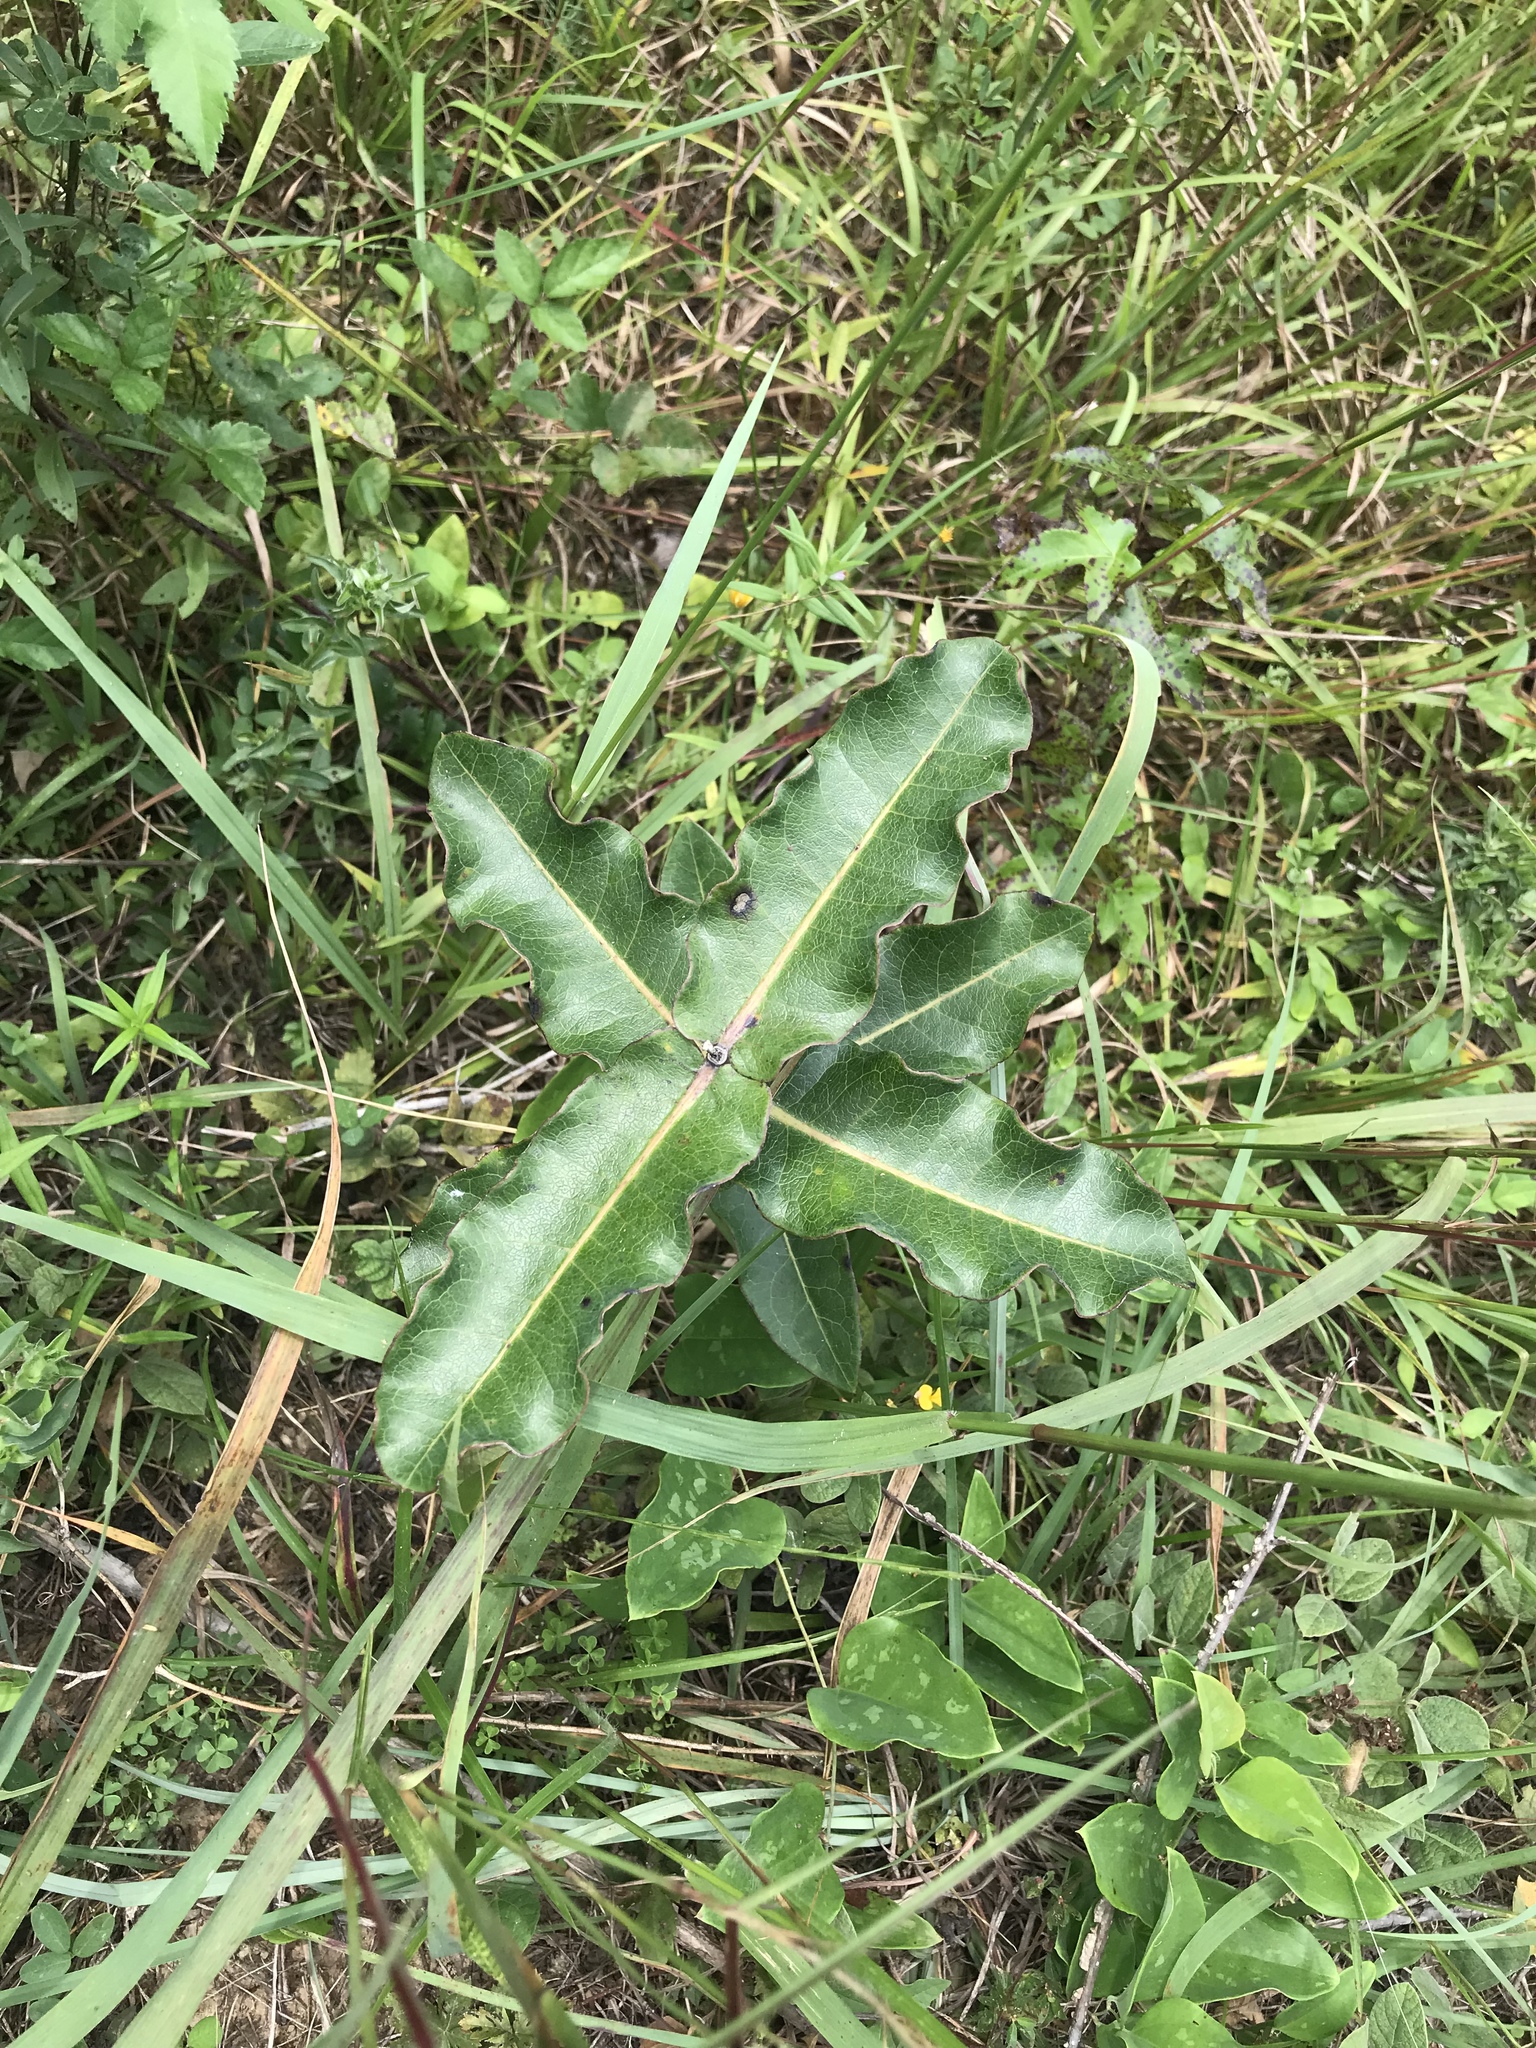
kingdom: Plantae
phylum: Tracheophyta
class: Magnoliopsida
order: Gentianales
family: Apocynaceae
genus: Asclepias
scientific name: Asclepias amplexicaulis
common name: Blunt-leaf milkweed
